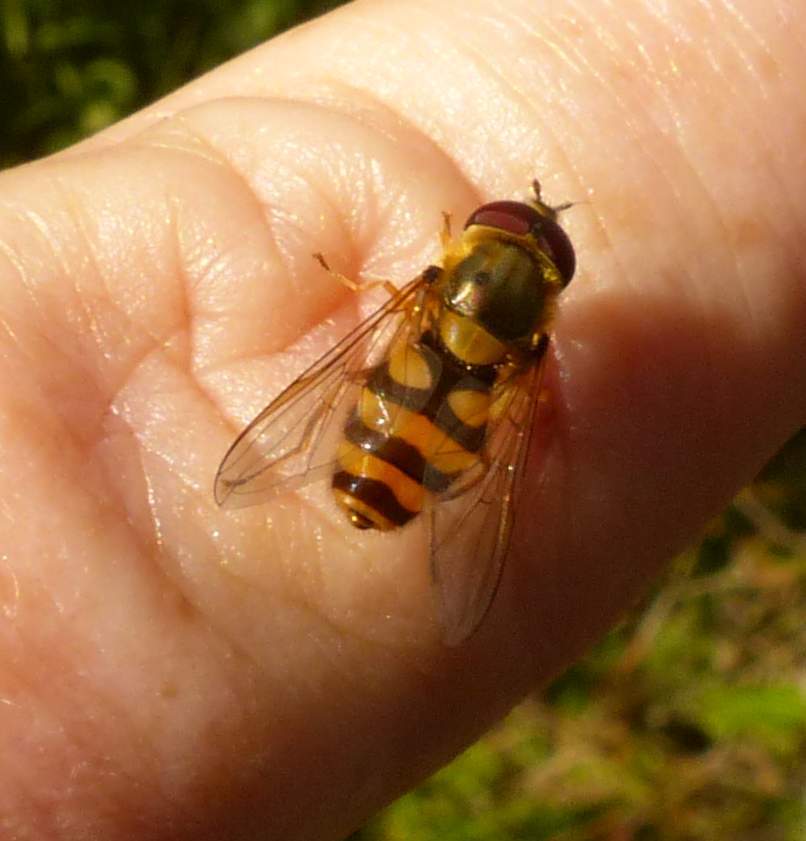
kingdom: Animalia
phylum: Arthropoda
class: Insecta
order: Diptera
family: Syrphidae
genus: Syrphus
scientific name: Syrphus
